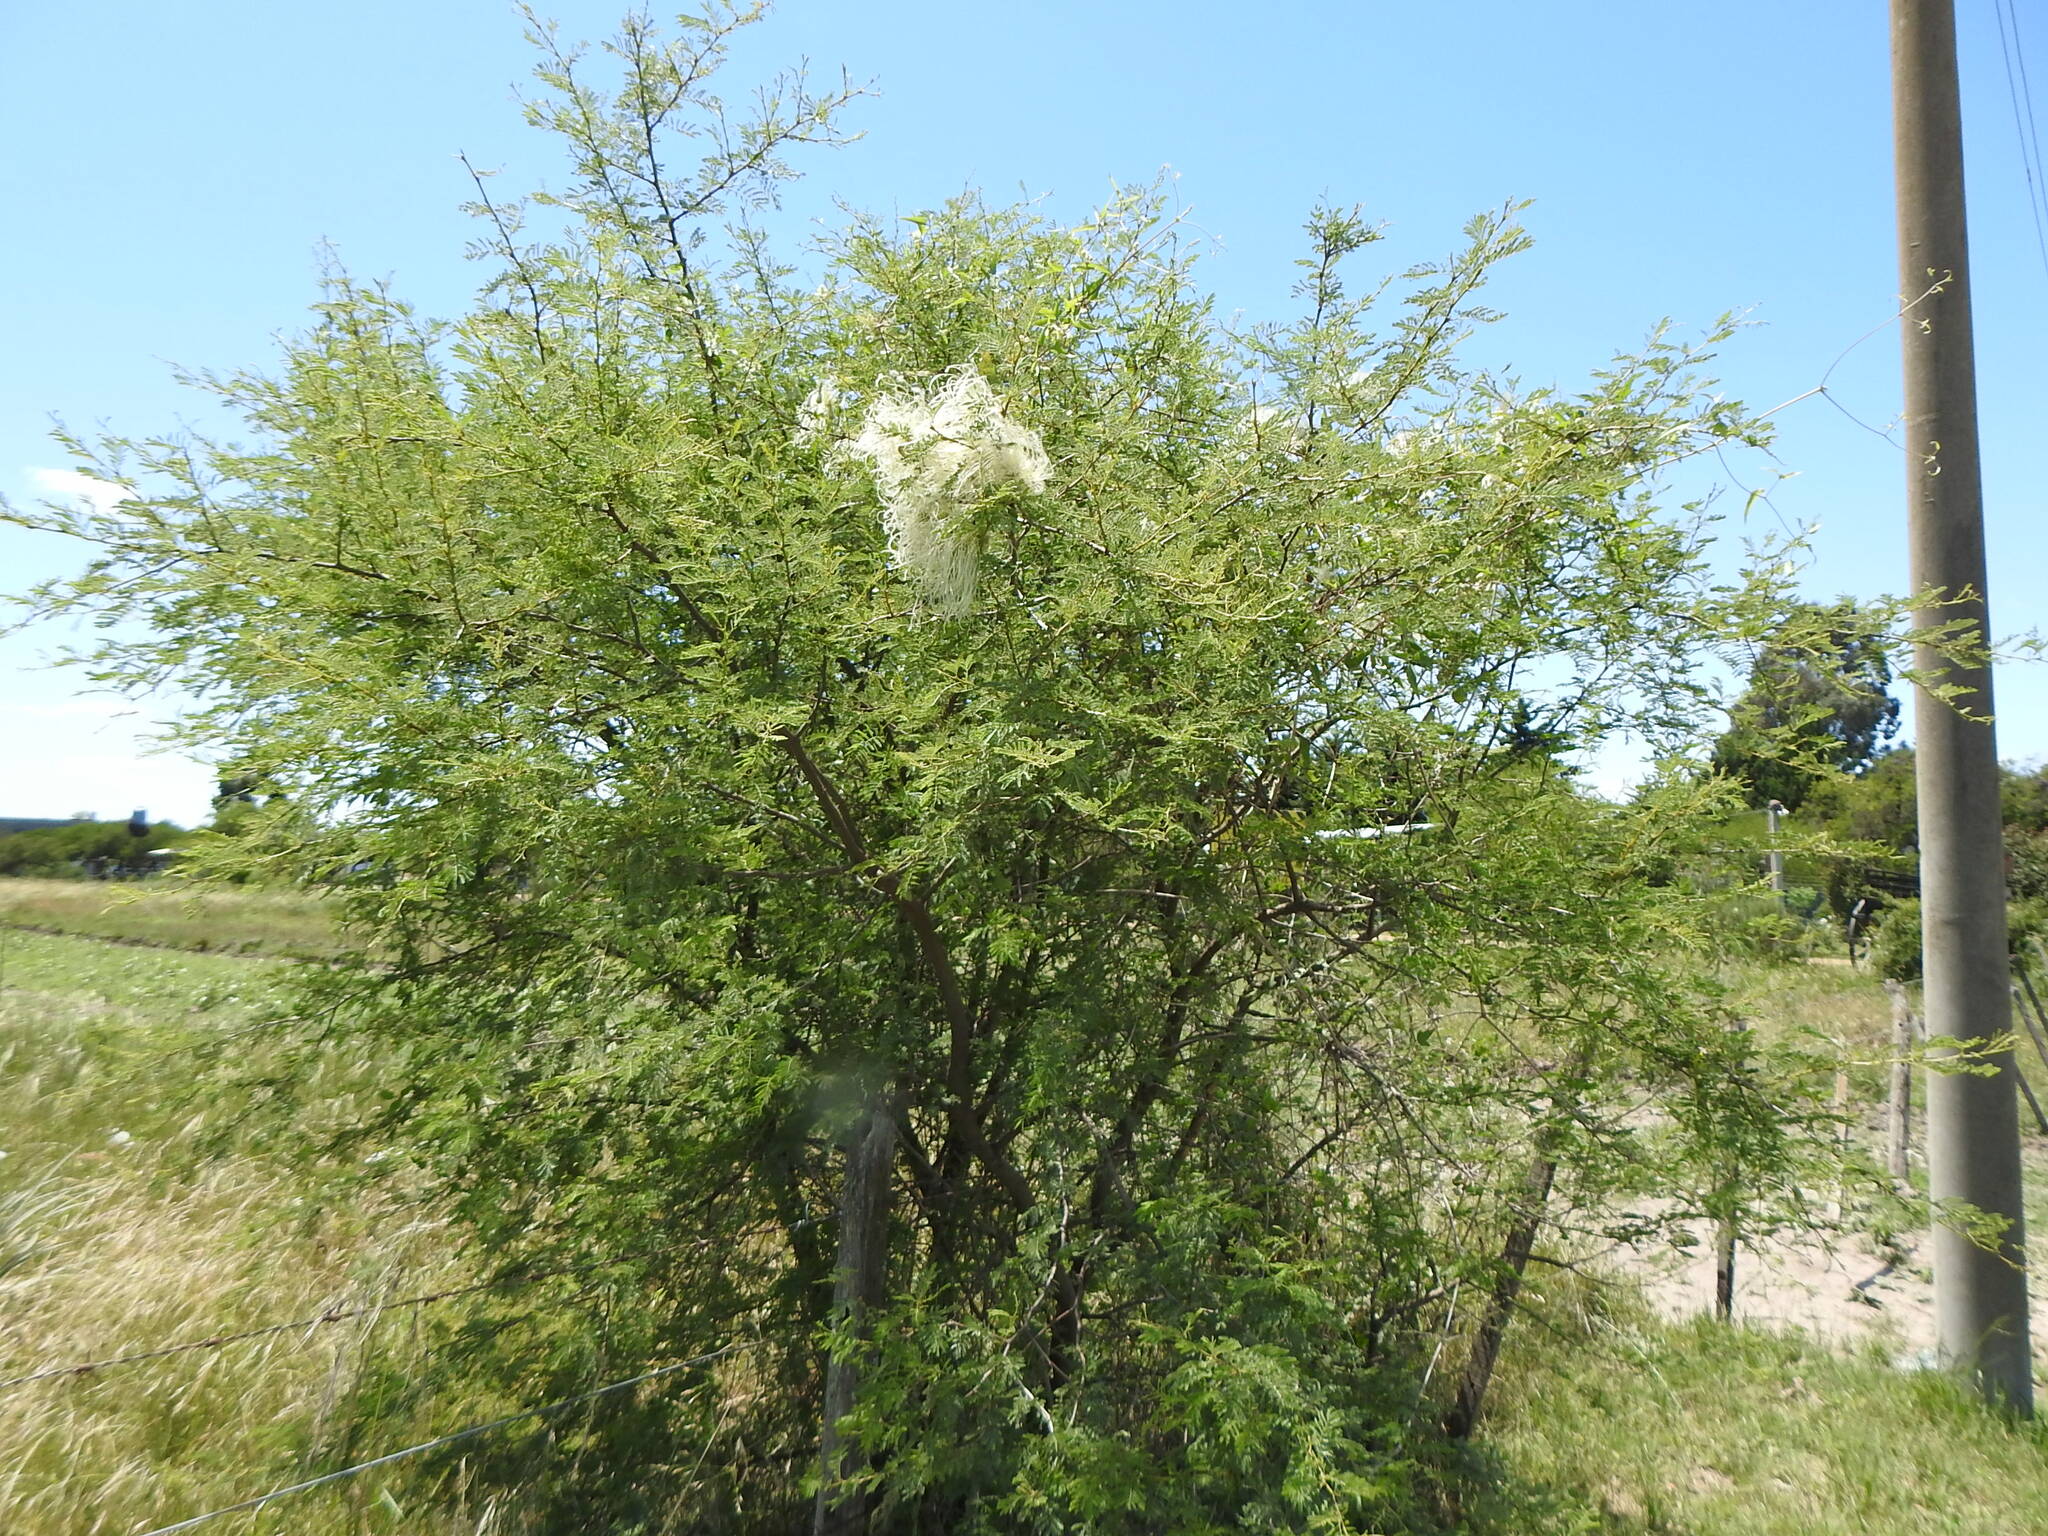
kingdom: Plantae
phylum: Tracheophyta
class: Magnoliopsida
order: Fabales
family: Fabaceae
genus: Vachellia
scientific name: Vachellia caven
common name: Roman cassie
